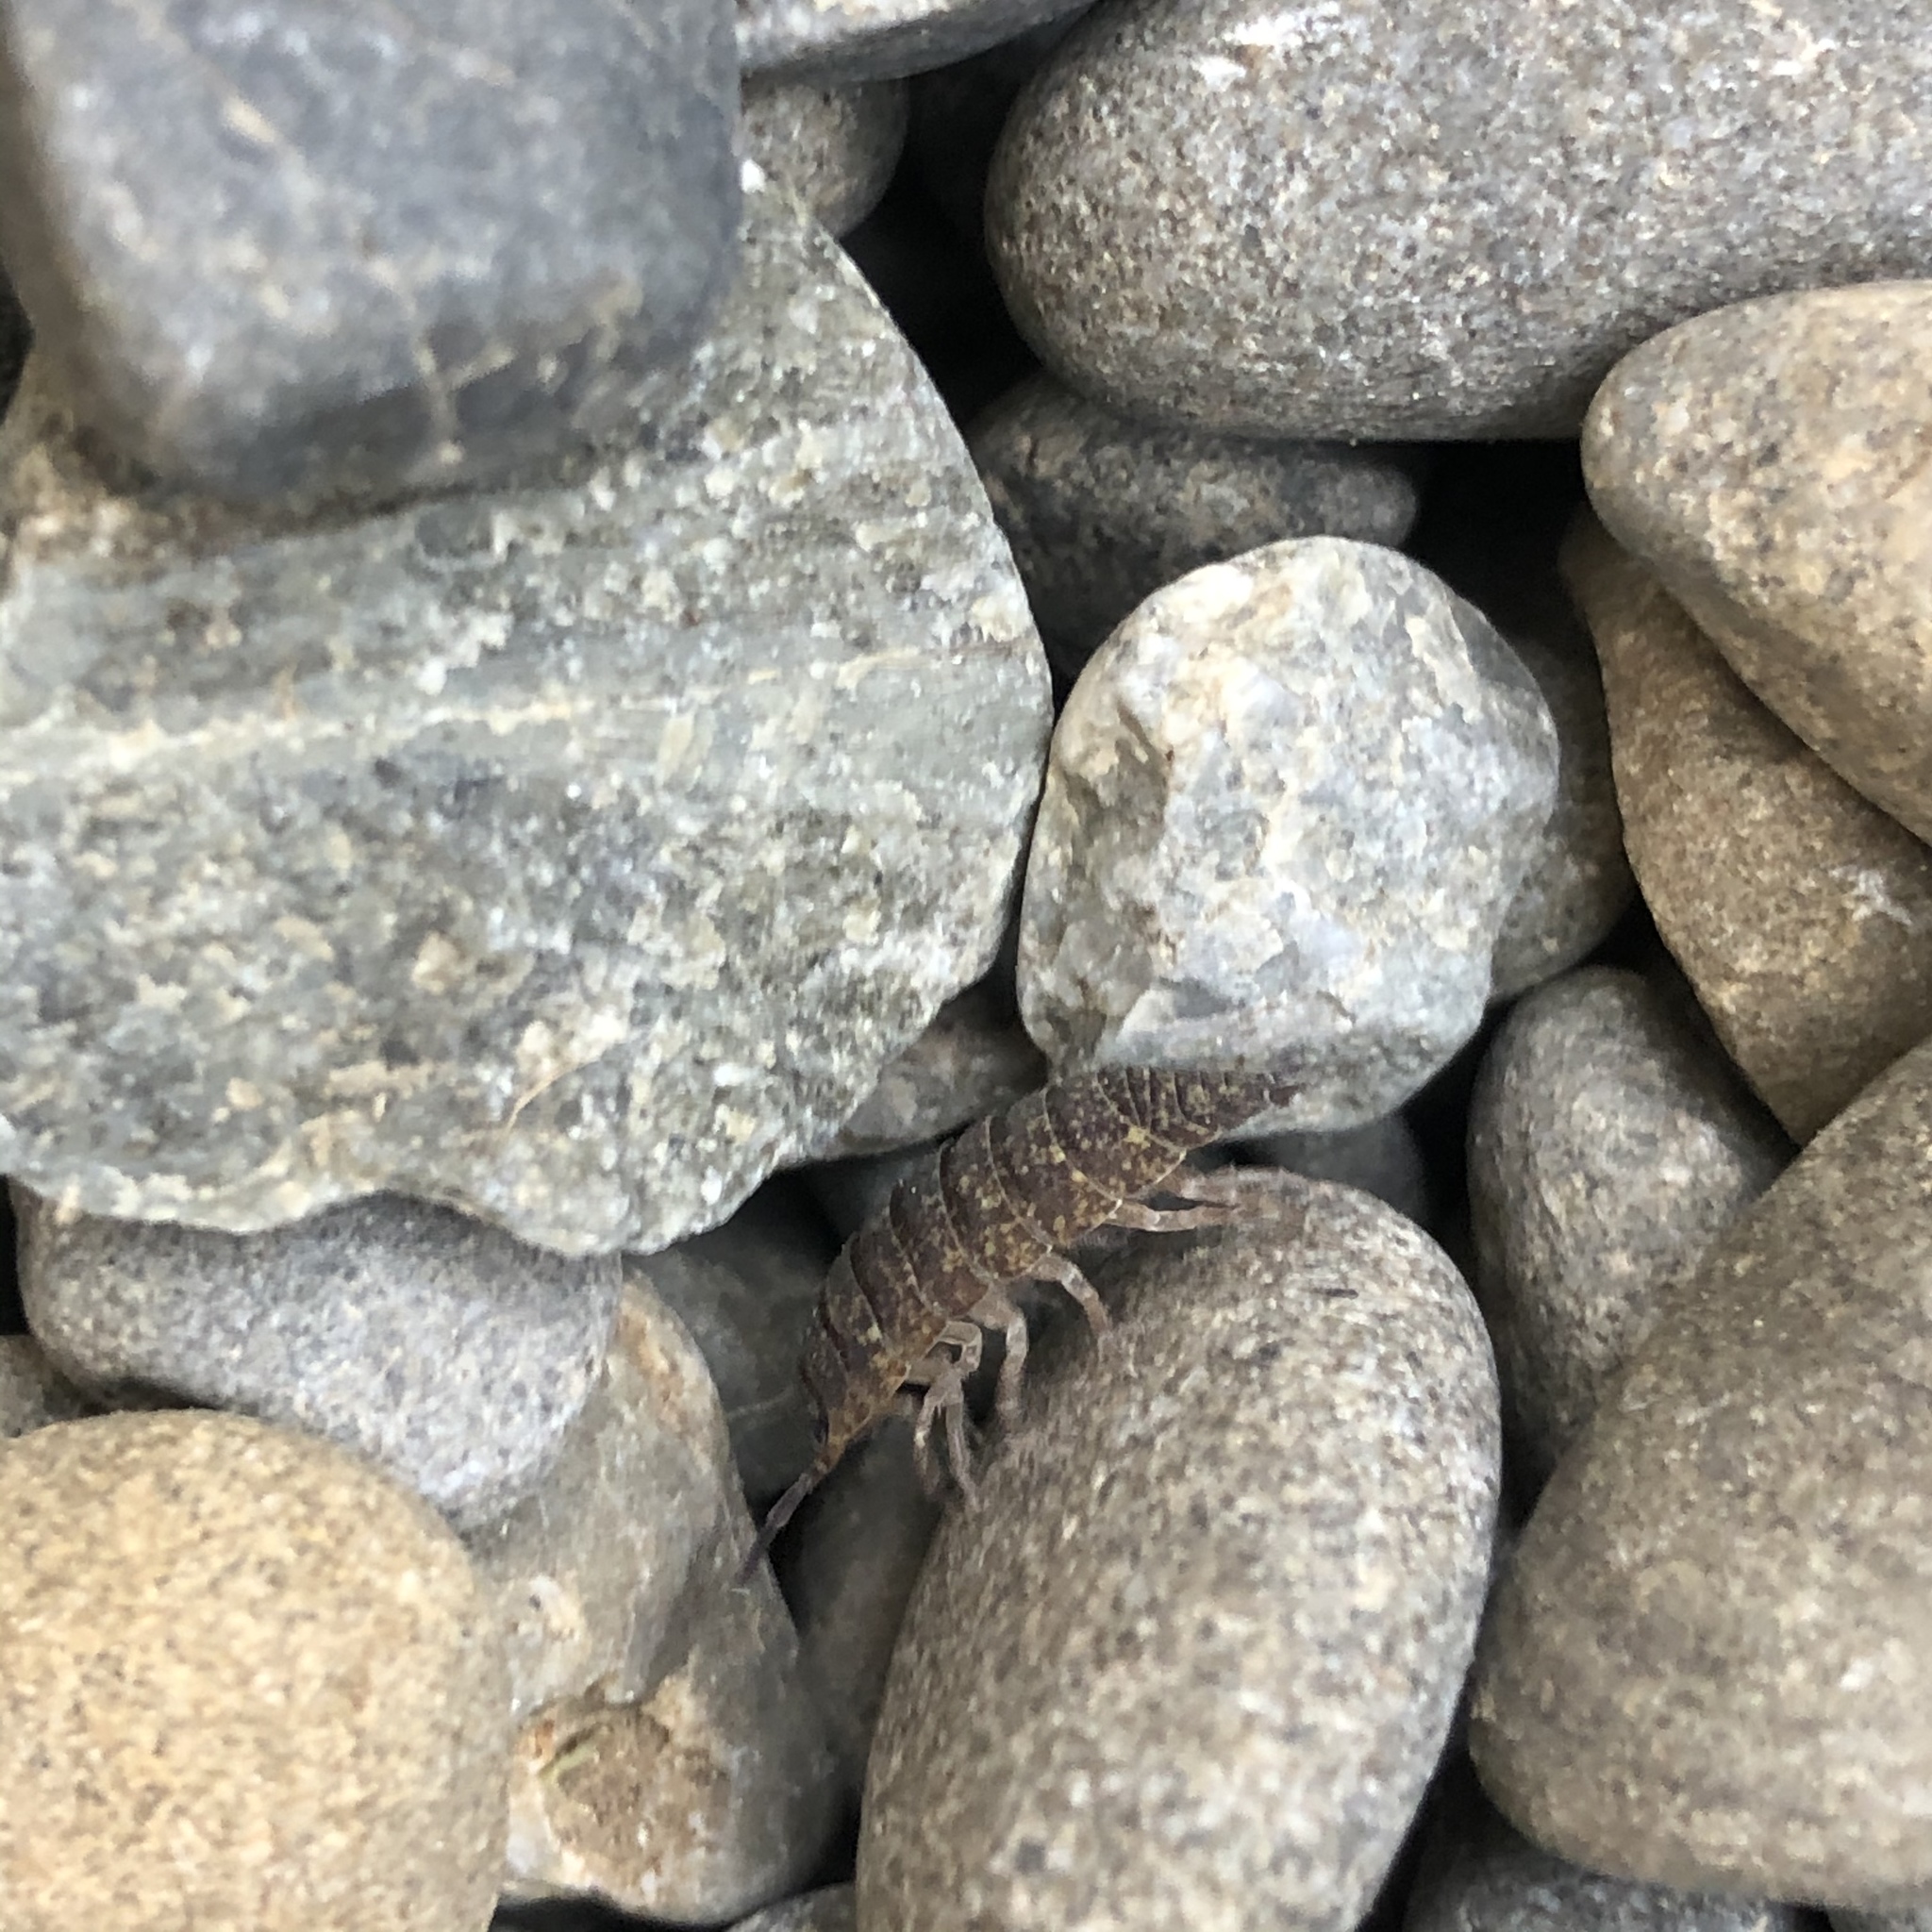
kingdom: Animalia
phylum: Arthropoda
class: Malacostraca
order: Isopoda
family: Porcellionidae
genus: Porcellio
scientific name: Porcellio scaber
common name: Common rough woodlouse
